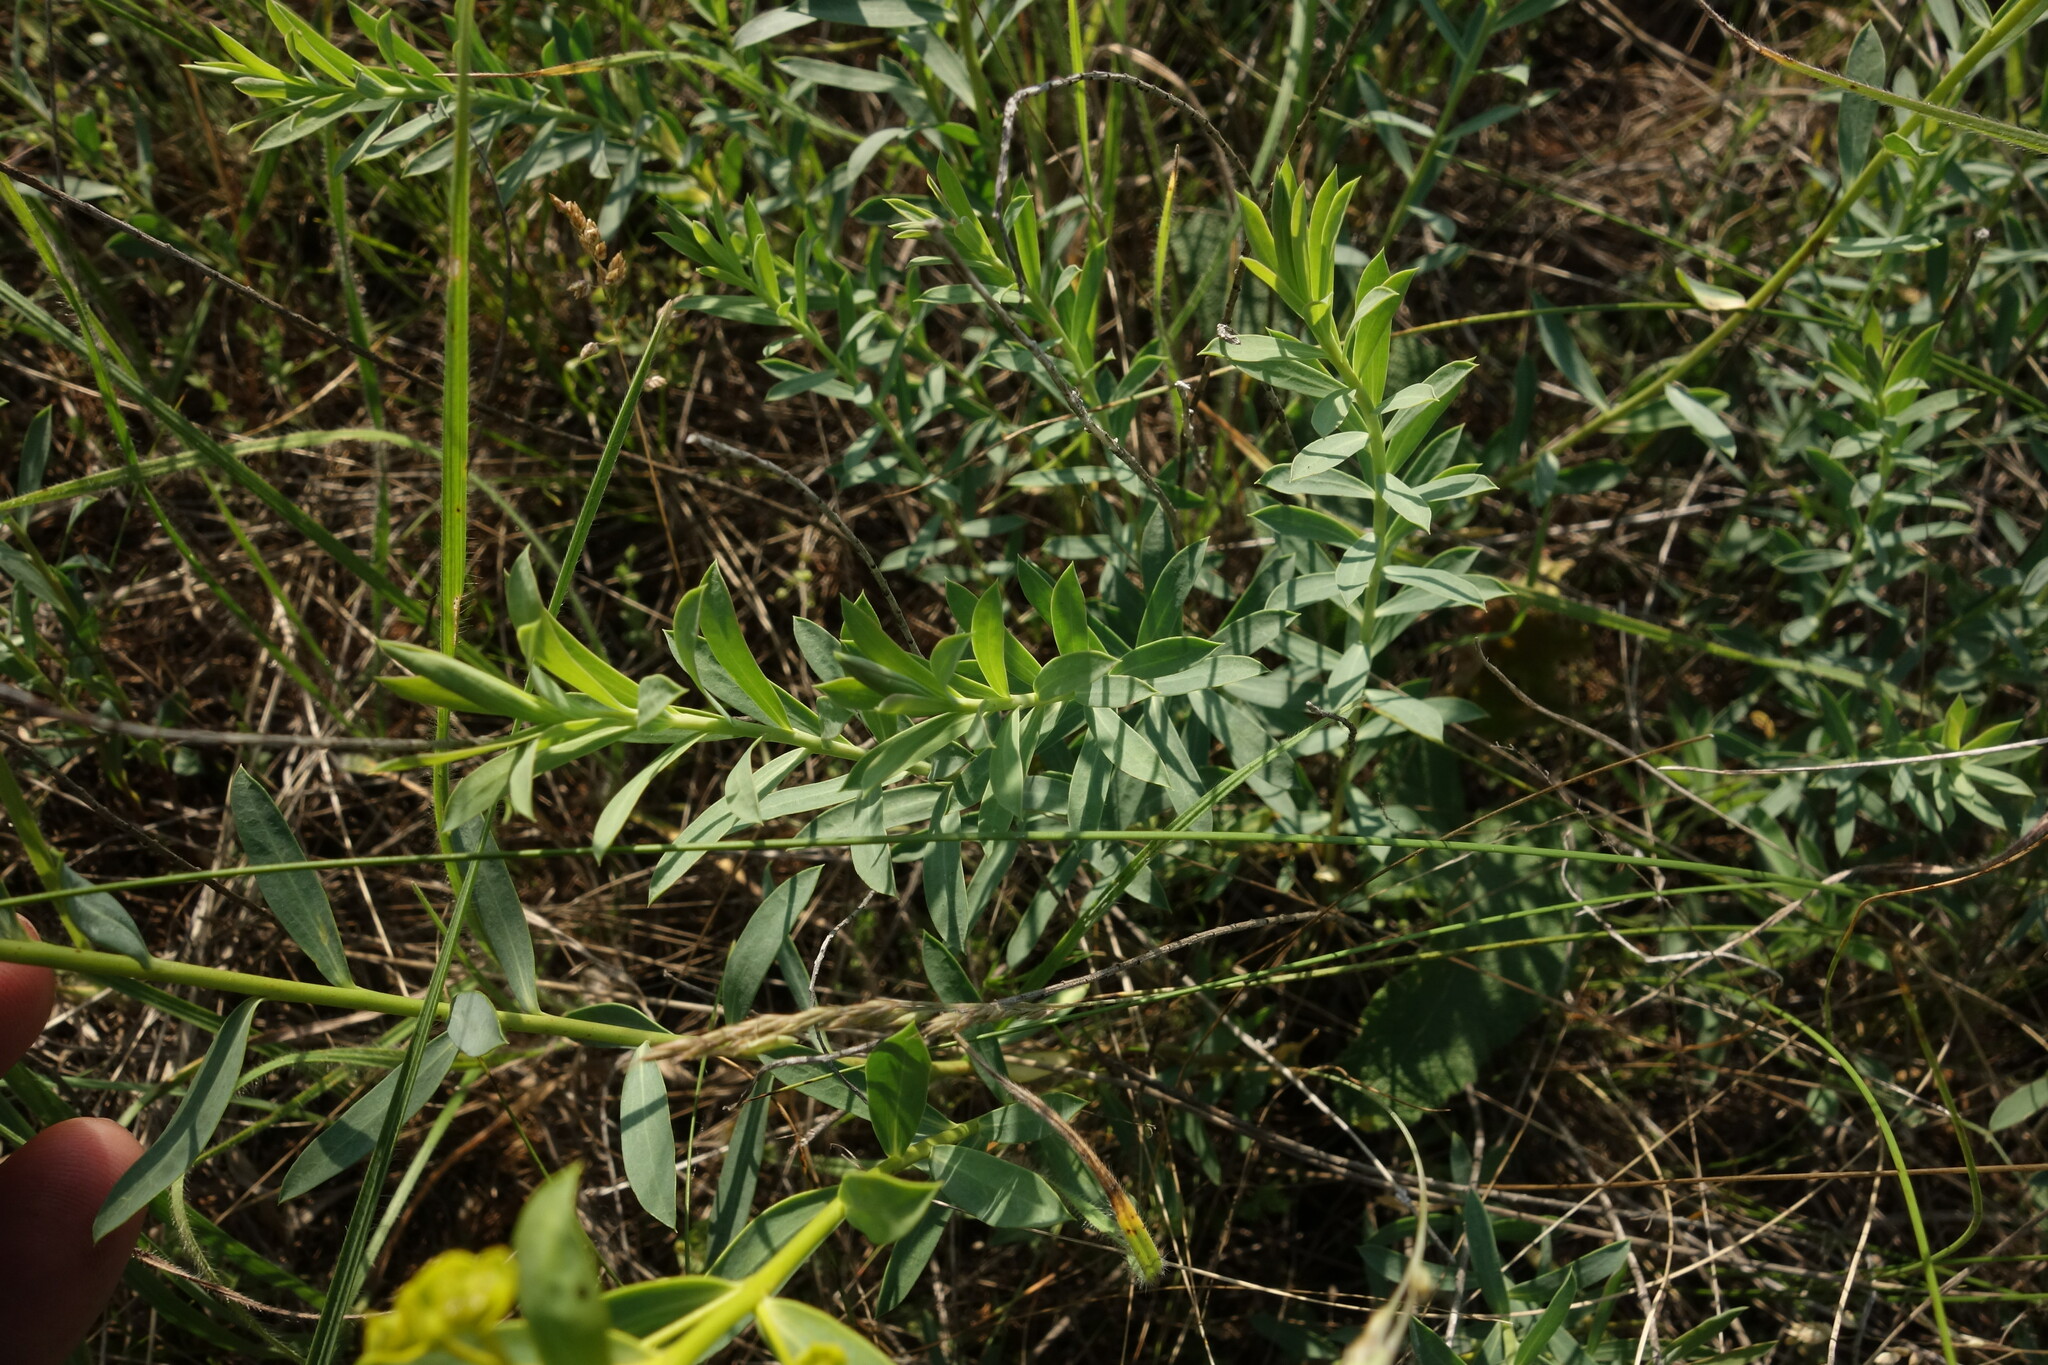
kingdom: Plantae
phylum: Tracheophyta
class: Magnoliopsida
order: Malpighiales
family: Euphorbiaceae
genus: Euphorbia
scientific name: Euphorbia seguieriana
